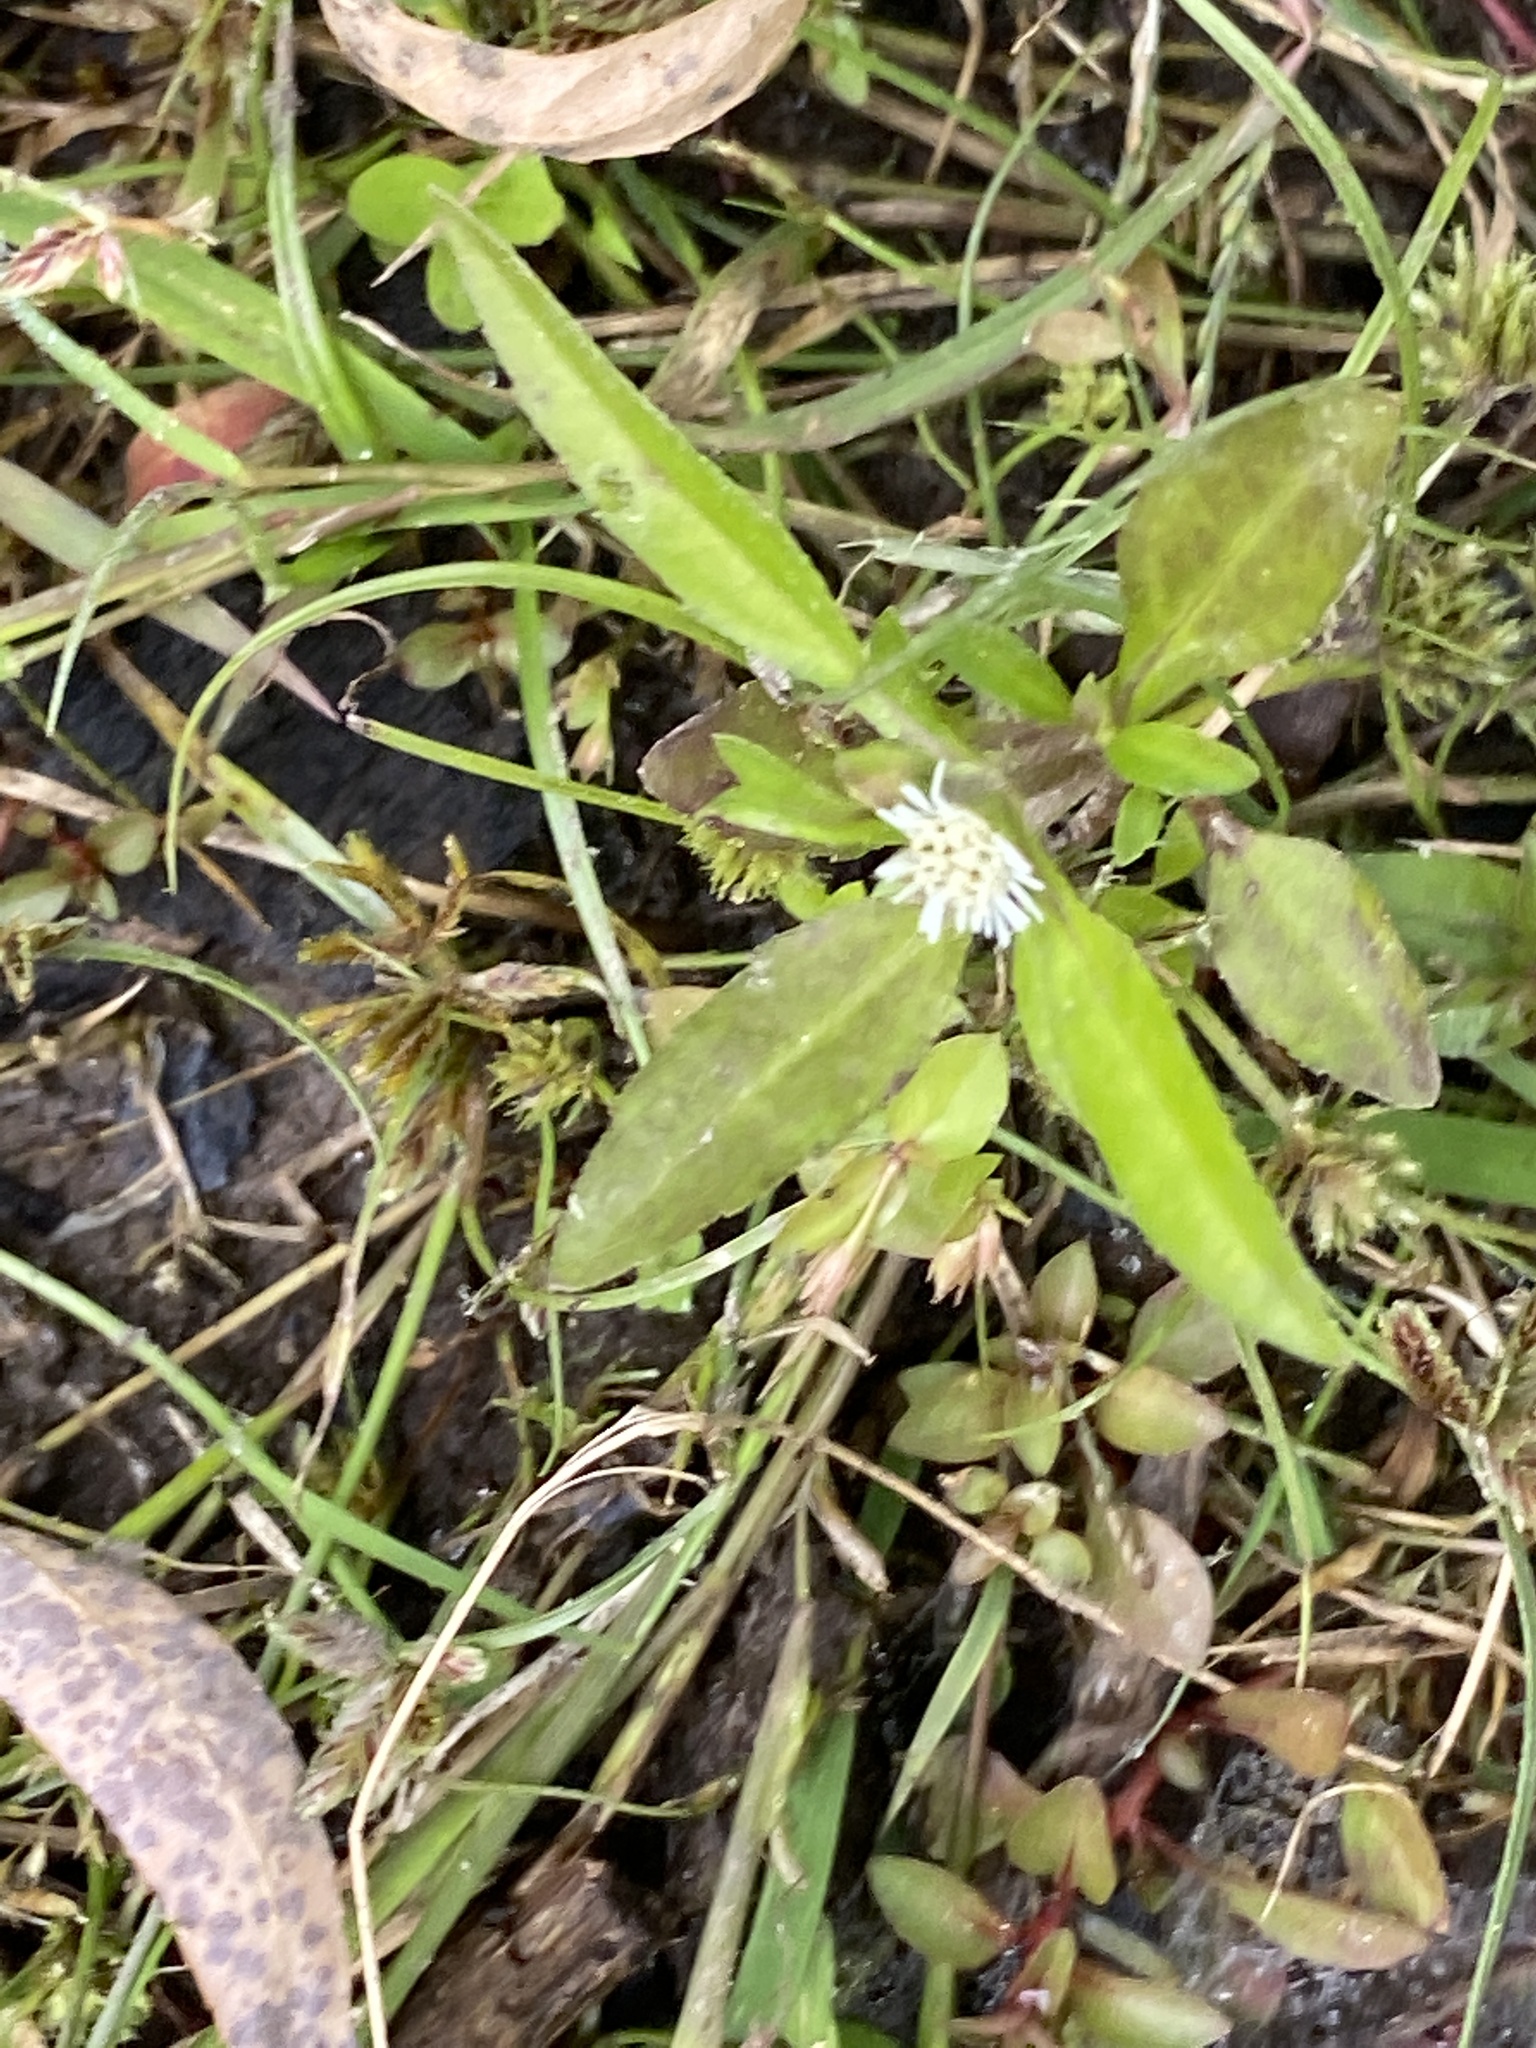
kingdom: Plantae
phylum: Tracheophyta
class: Magnoliopsida
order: Asterales
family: Asteraceae
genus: Eclipta
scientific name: Eclipta prostrata
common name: False daisy
